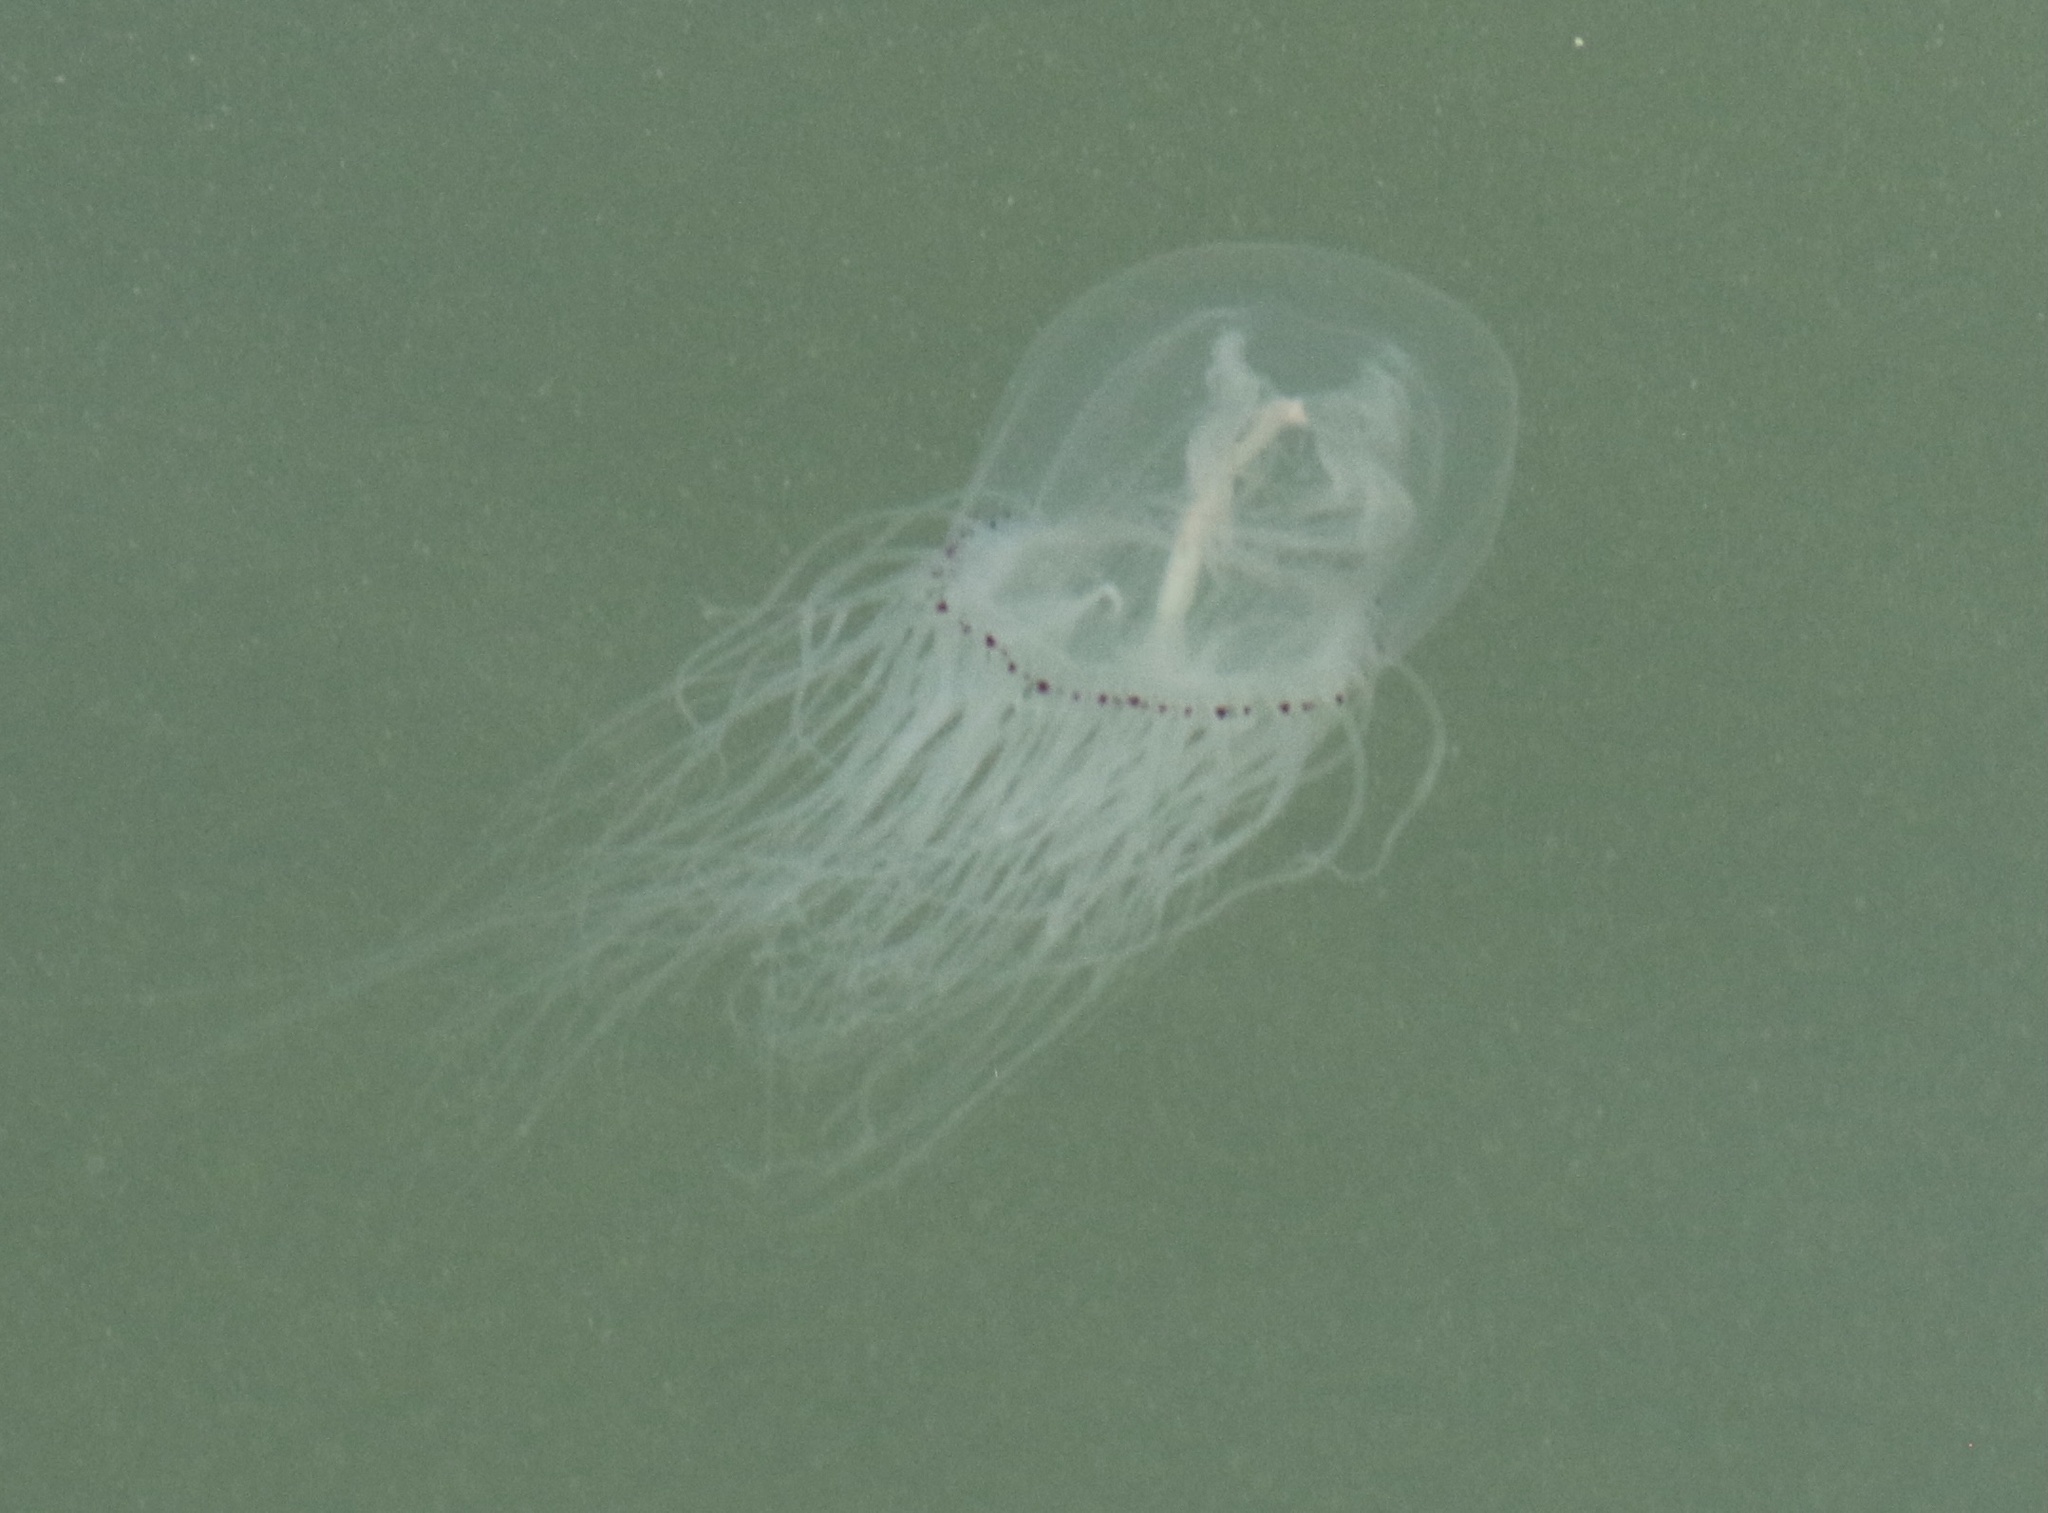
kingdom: Animalia
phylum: Cnidaria
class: Hydrozoa
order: Anthoathecata
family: Corynidae
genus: Polyorchis
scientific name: Polyorchis penicillatus
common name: Penicillate jellyfish
